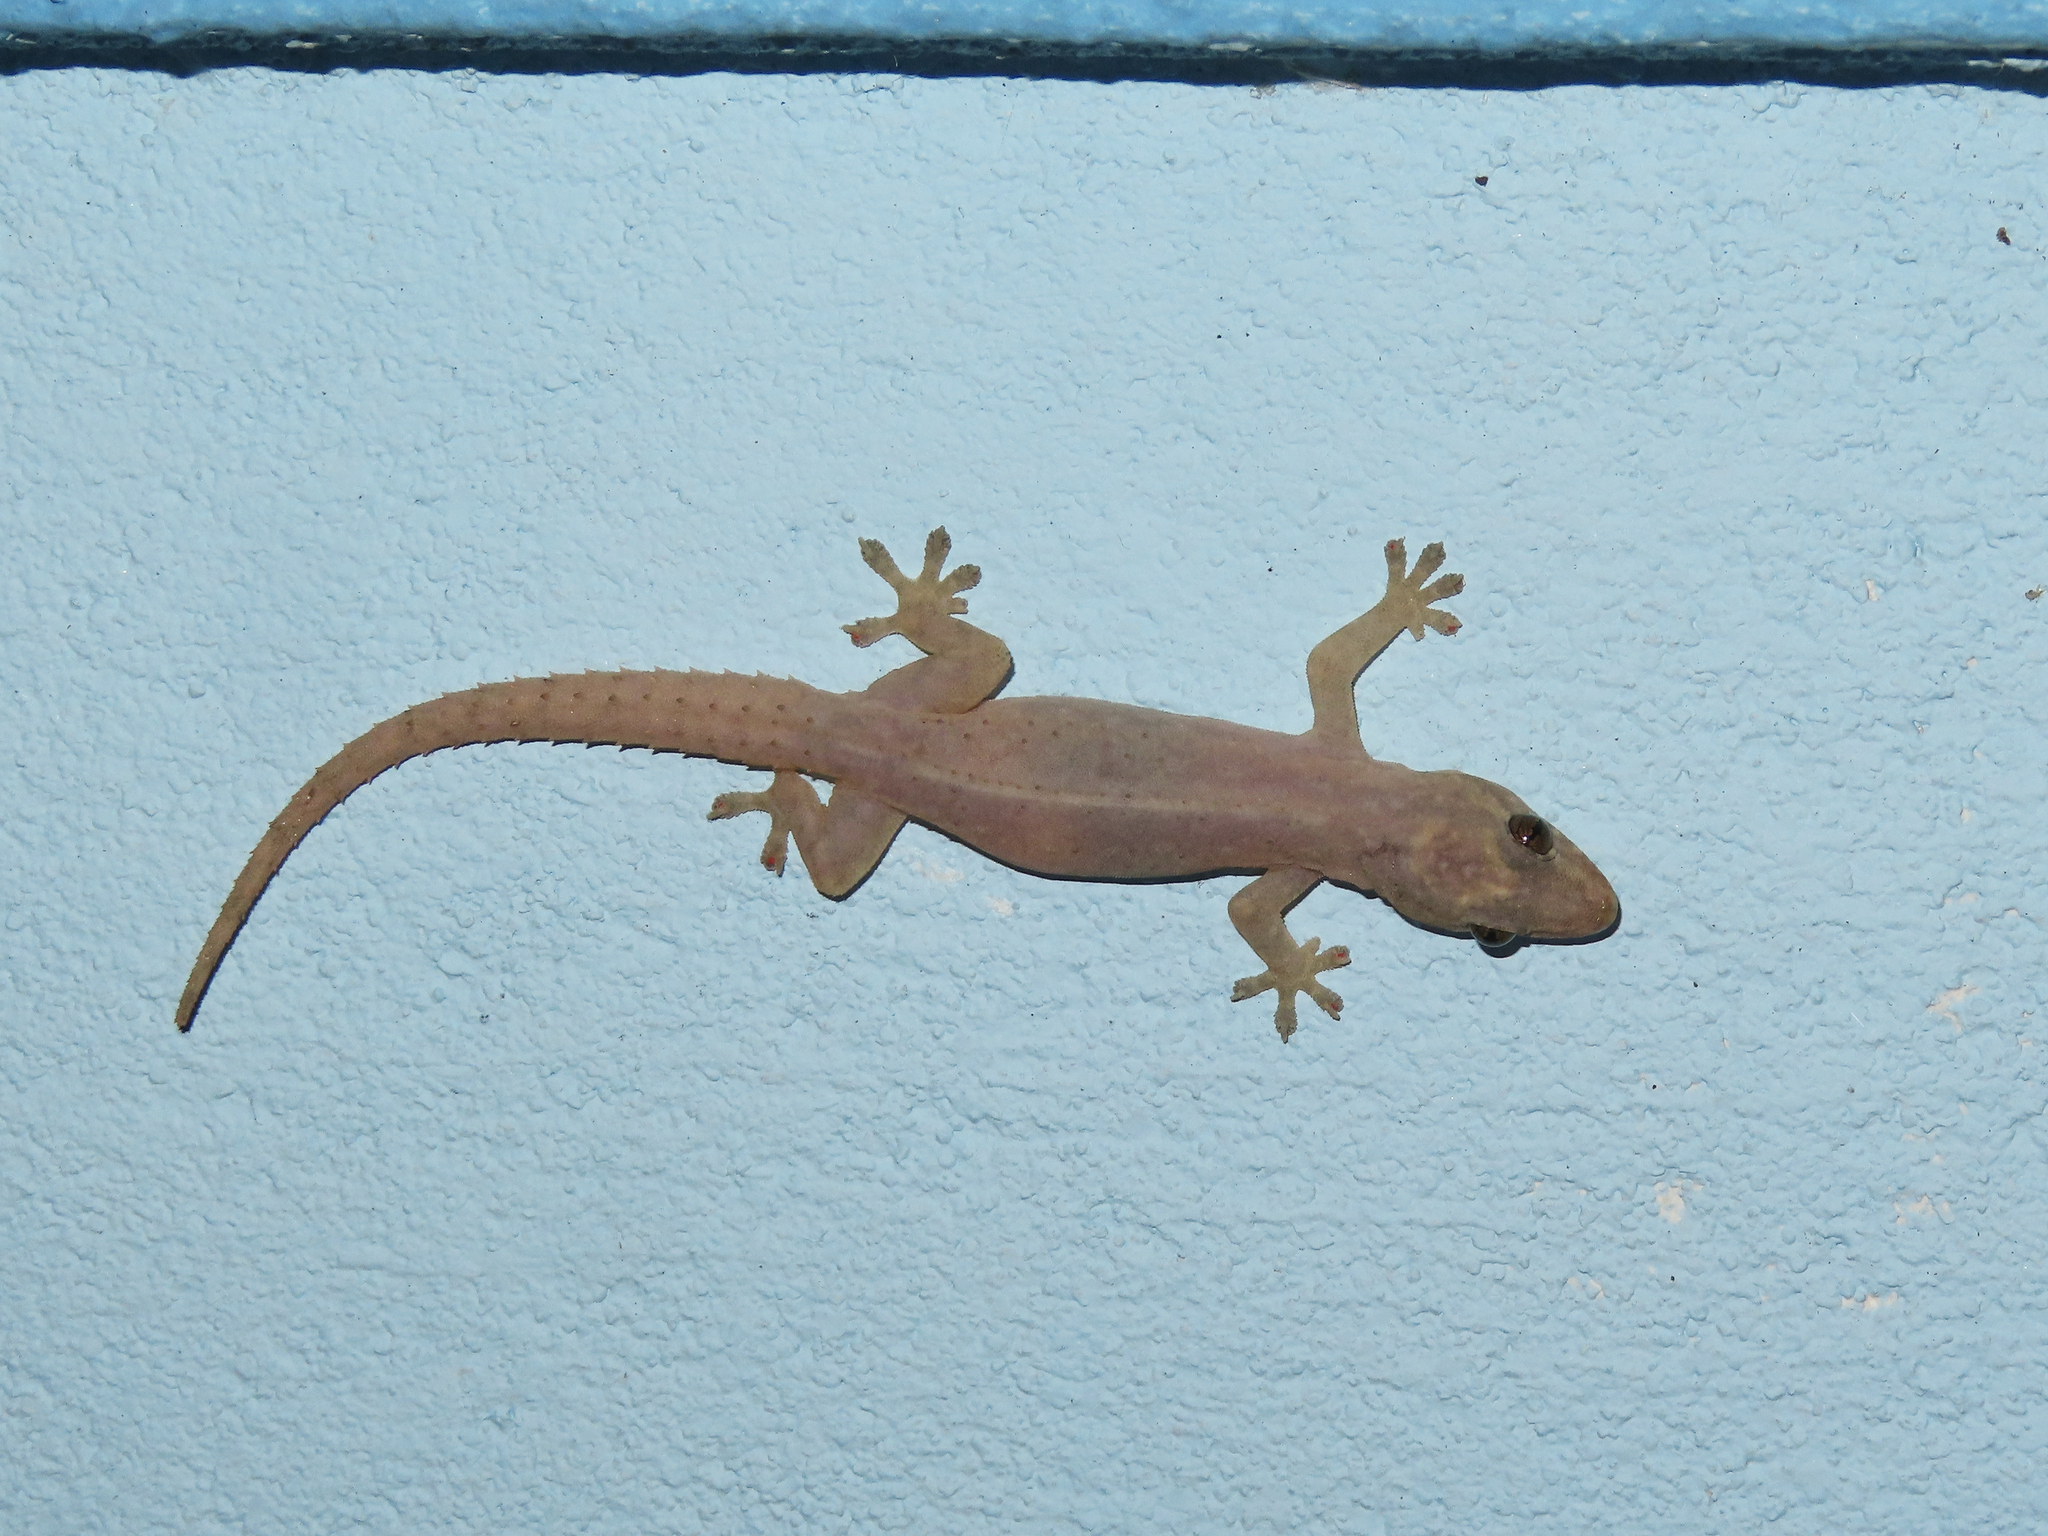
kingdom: Animalia
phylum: Chordata
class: Squamata
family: Gekkonidae
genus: Hemidactylus
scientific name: Hemidactylus frenatus
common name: Common house gecko
